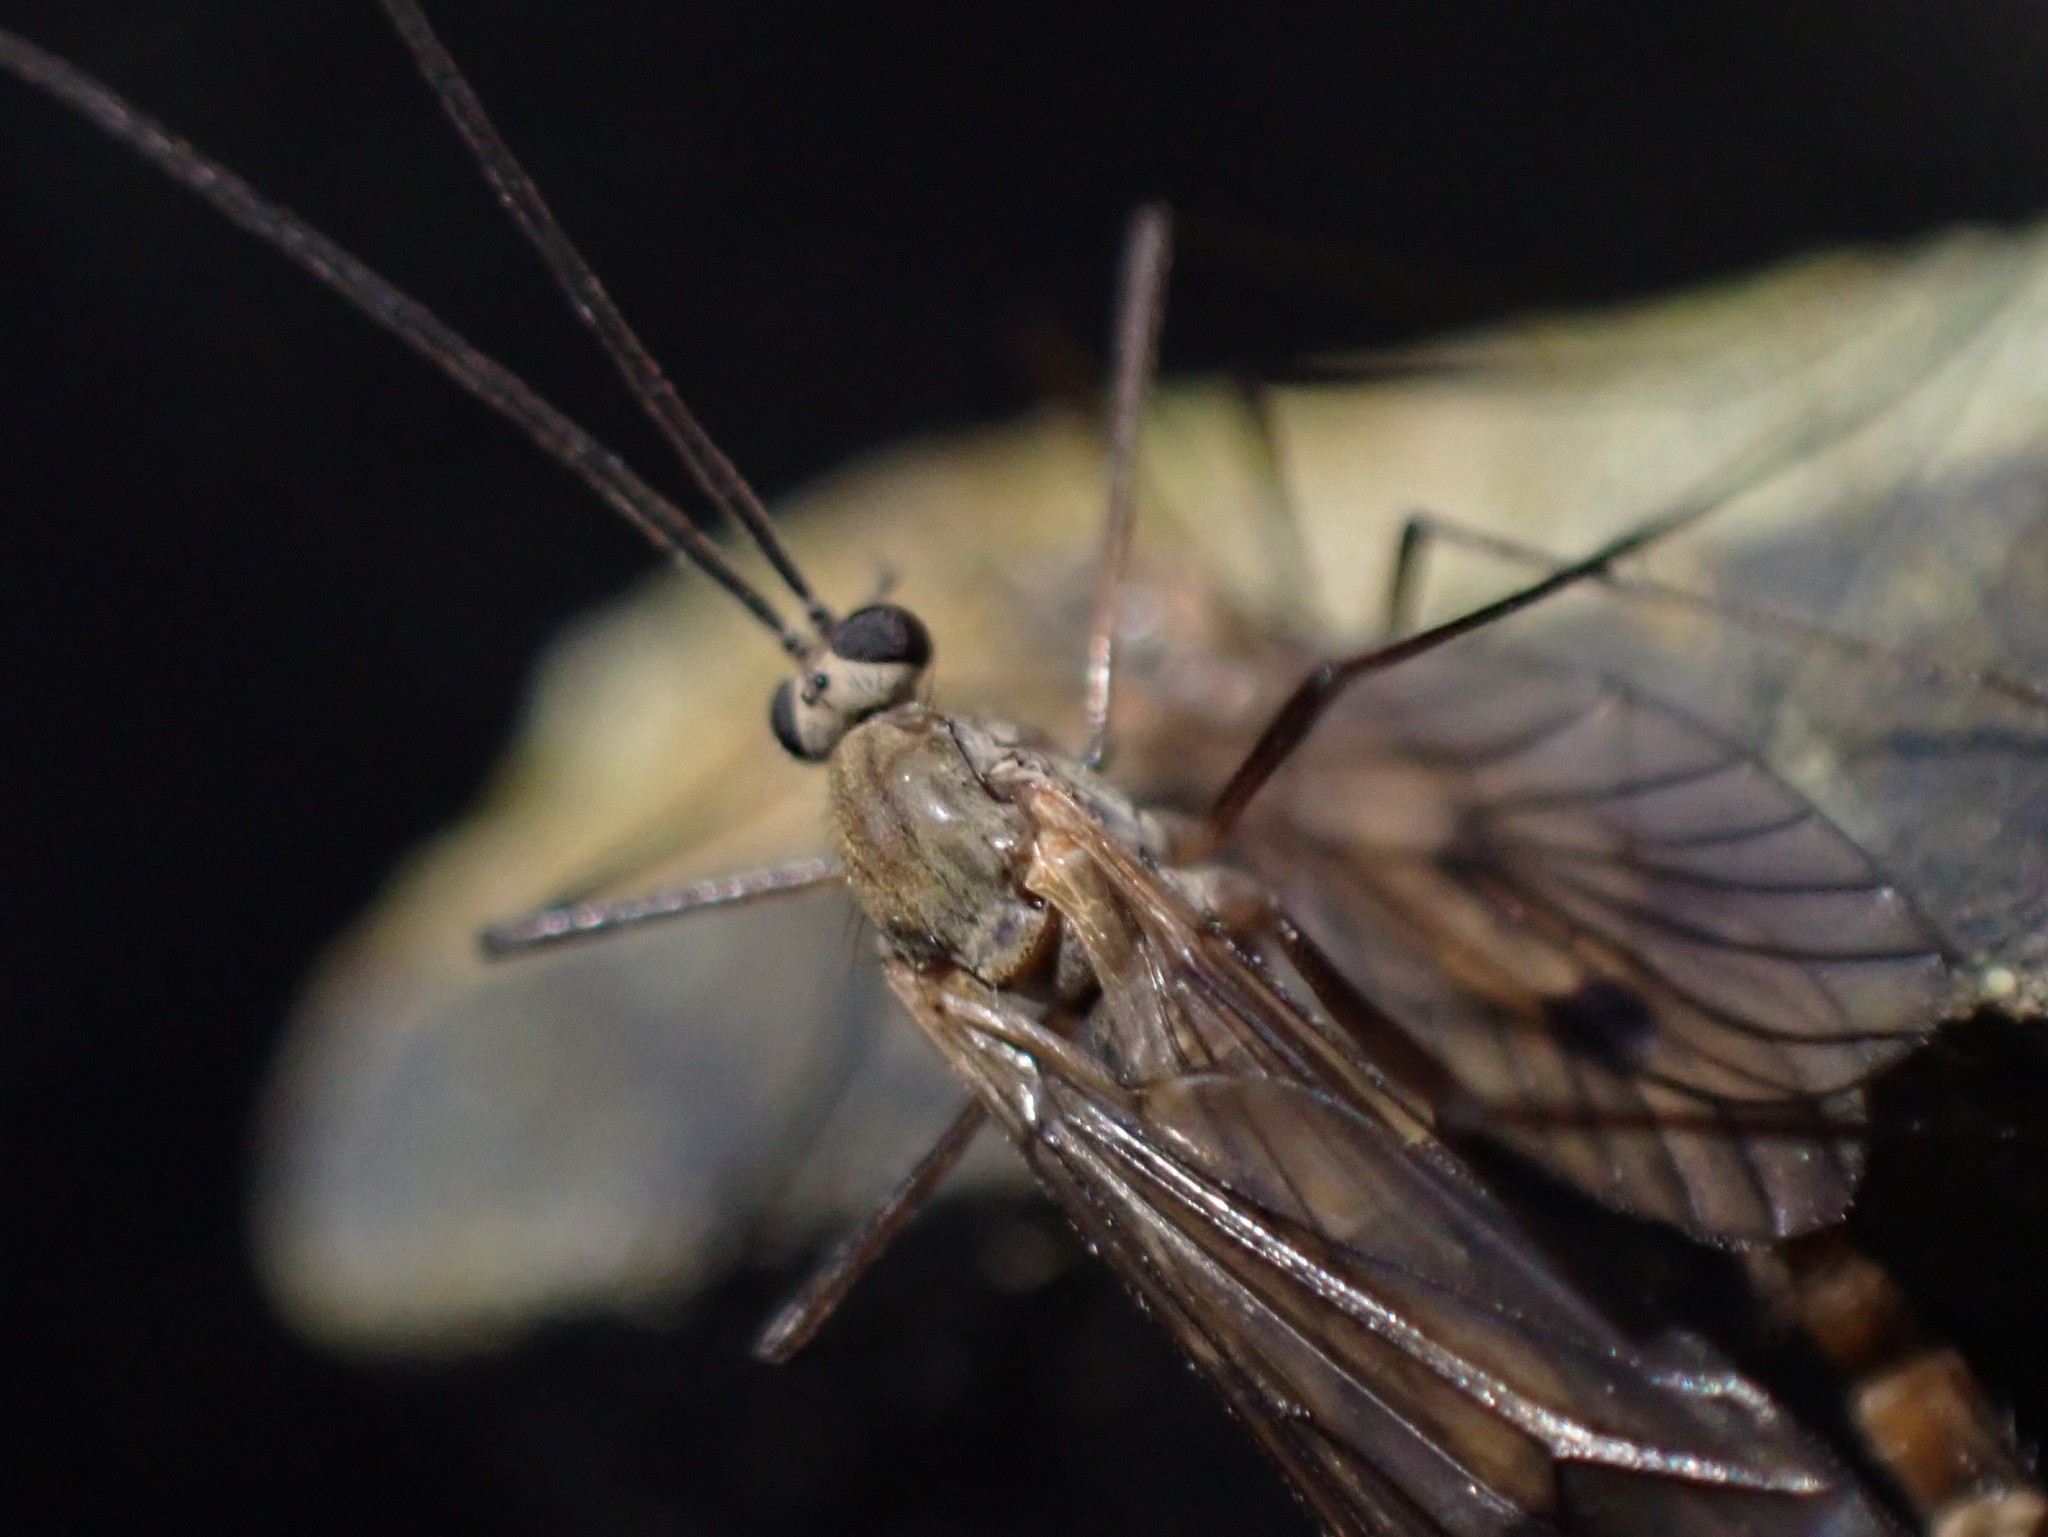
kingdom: Animalia
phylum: Arthropoda
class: Insecta
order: Diptera
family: Pachyneuridae
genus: Cramptonomyia
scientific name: Cramptonomyia spenceri
